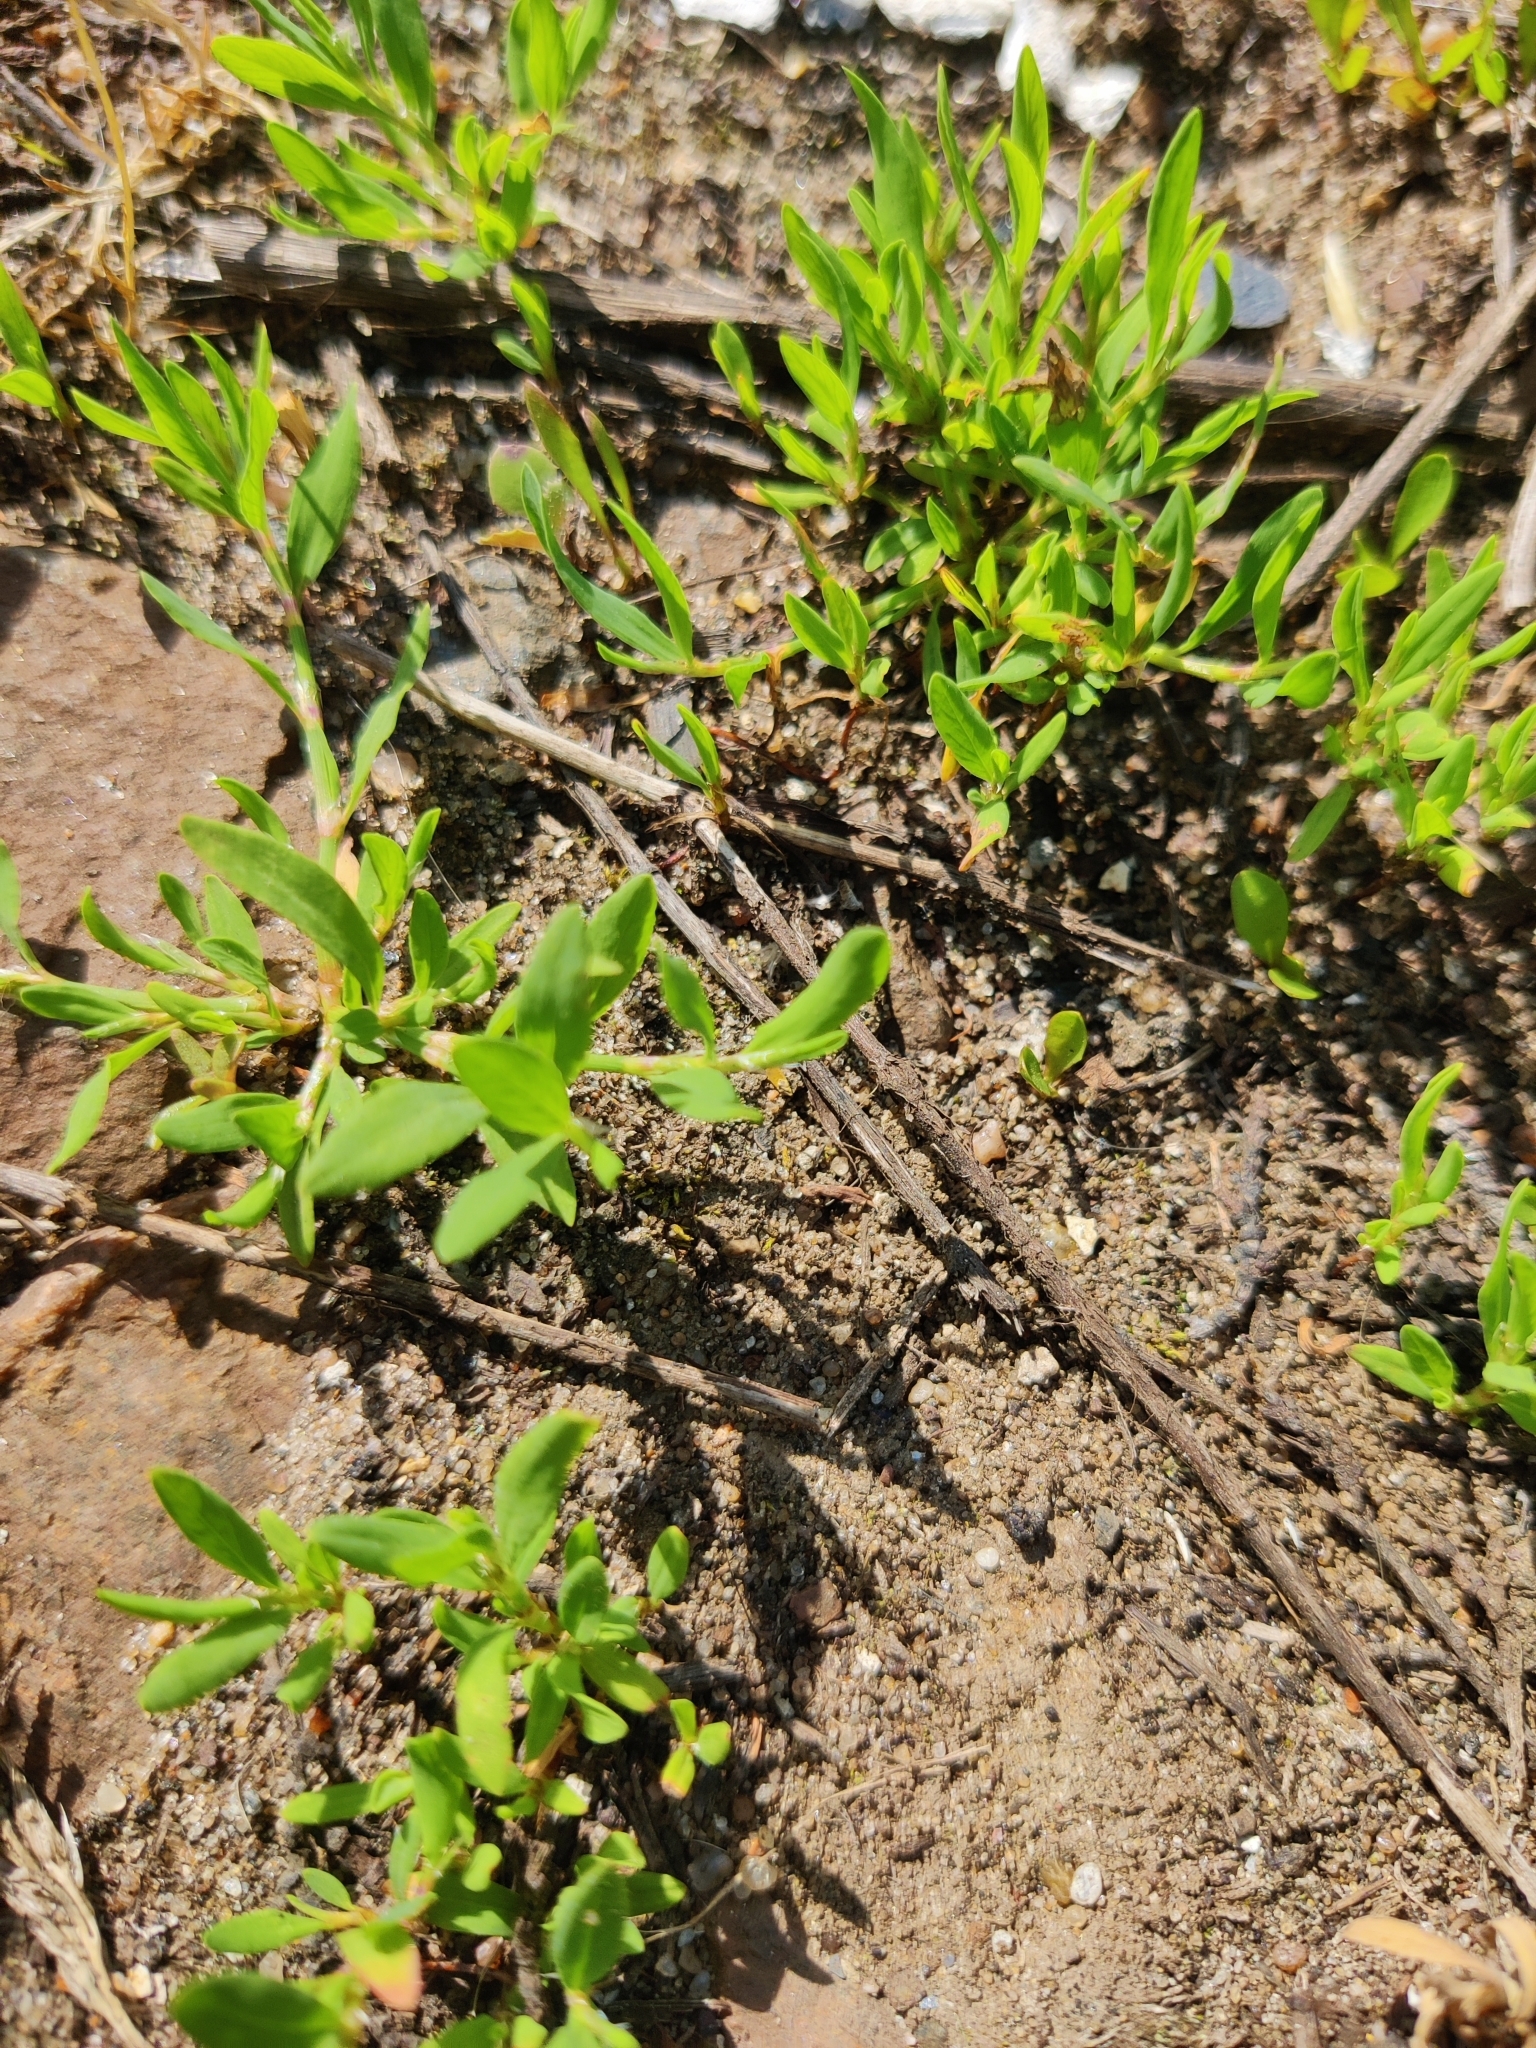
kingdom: Plantae
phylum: Tracheophyta
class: Magnoliopsida
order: Caryophyllales
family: Polygonaceae
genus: Polygonum
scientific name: Polygonum
